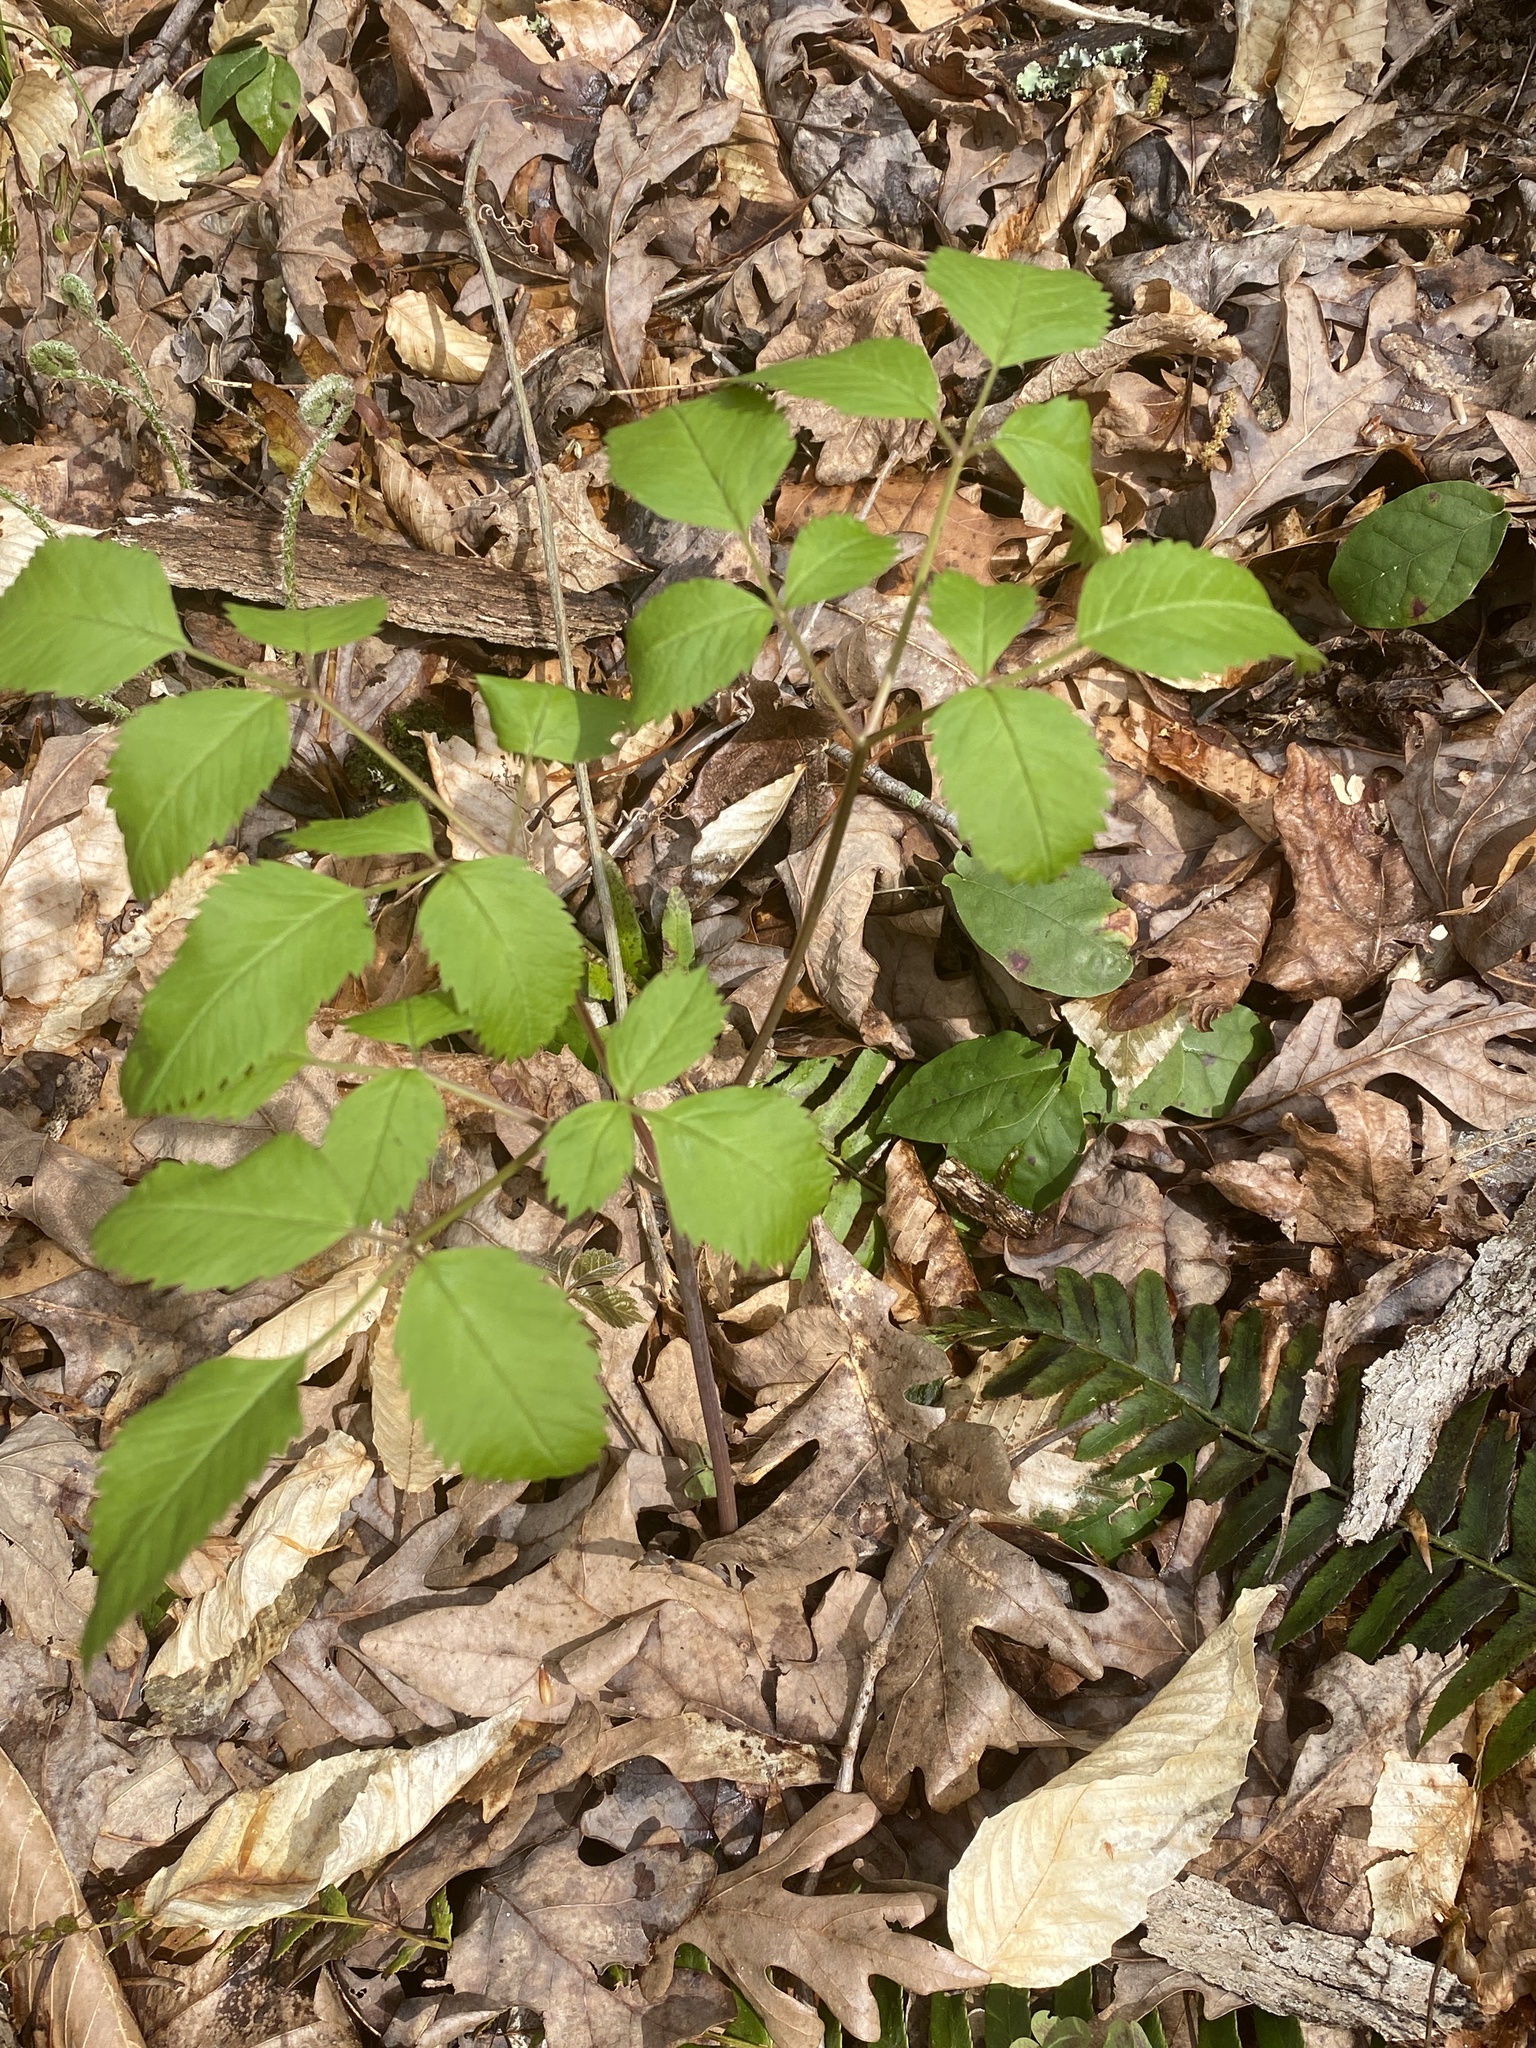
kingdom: Plantae
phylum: Tracheophyta
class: Magnoliopsida
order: Apiales
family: Apiaceae
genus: Ligusticum
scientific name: Ligusticum canadense
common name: American lovage
